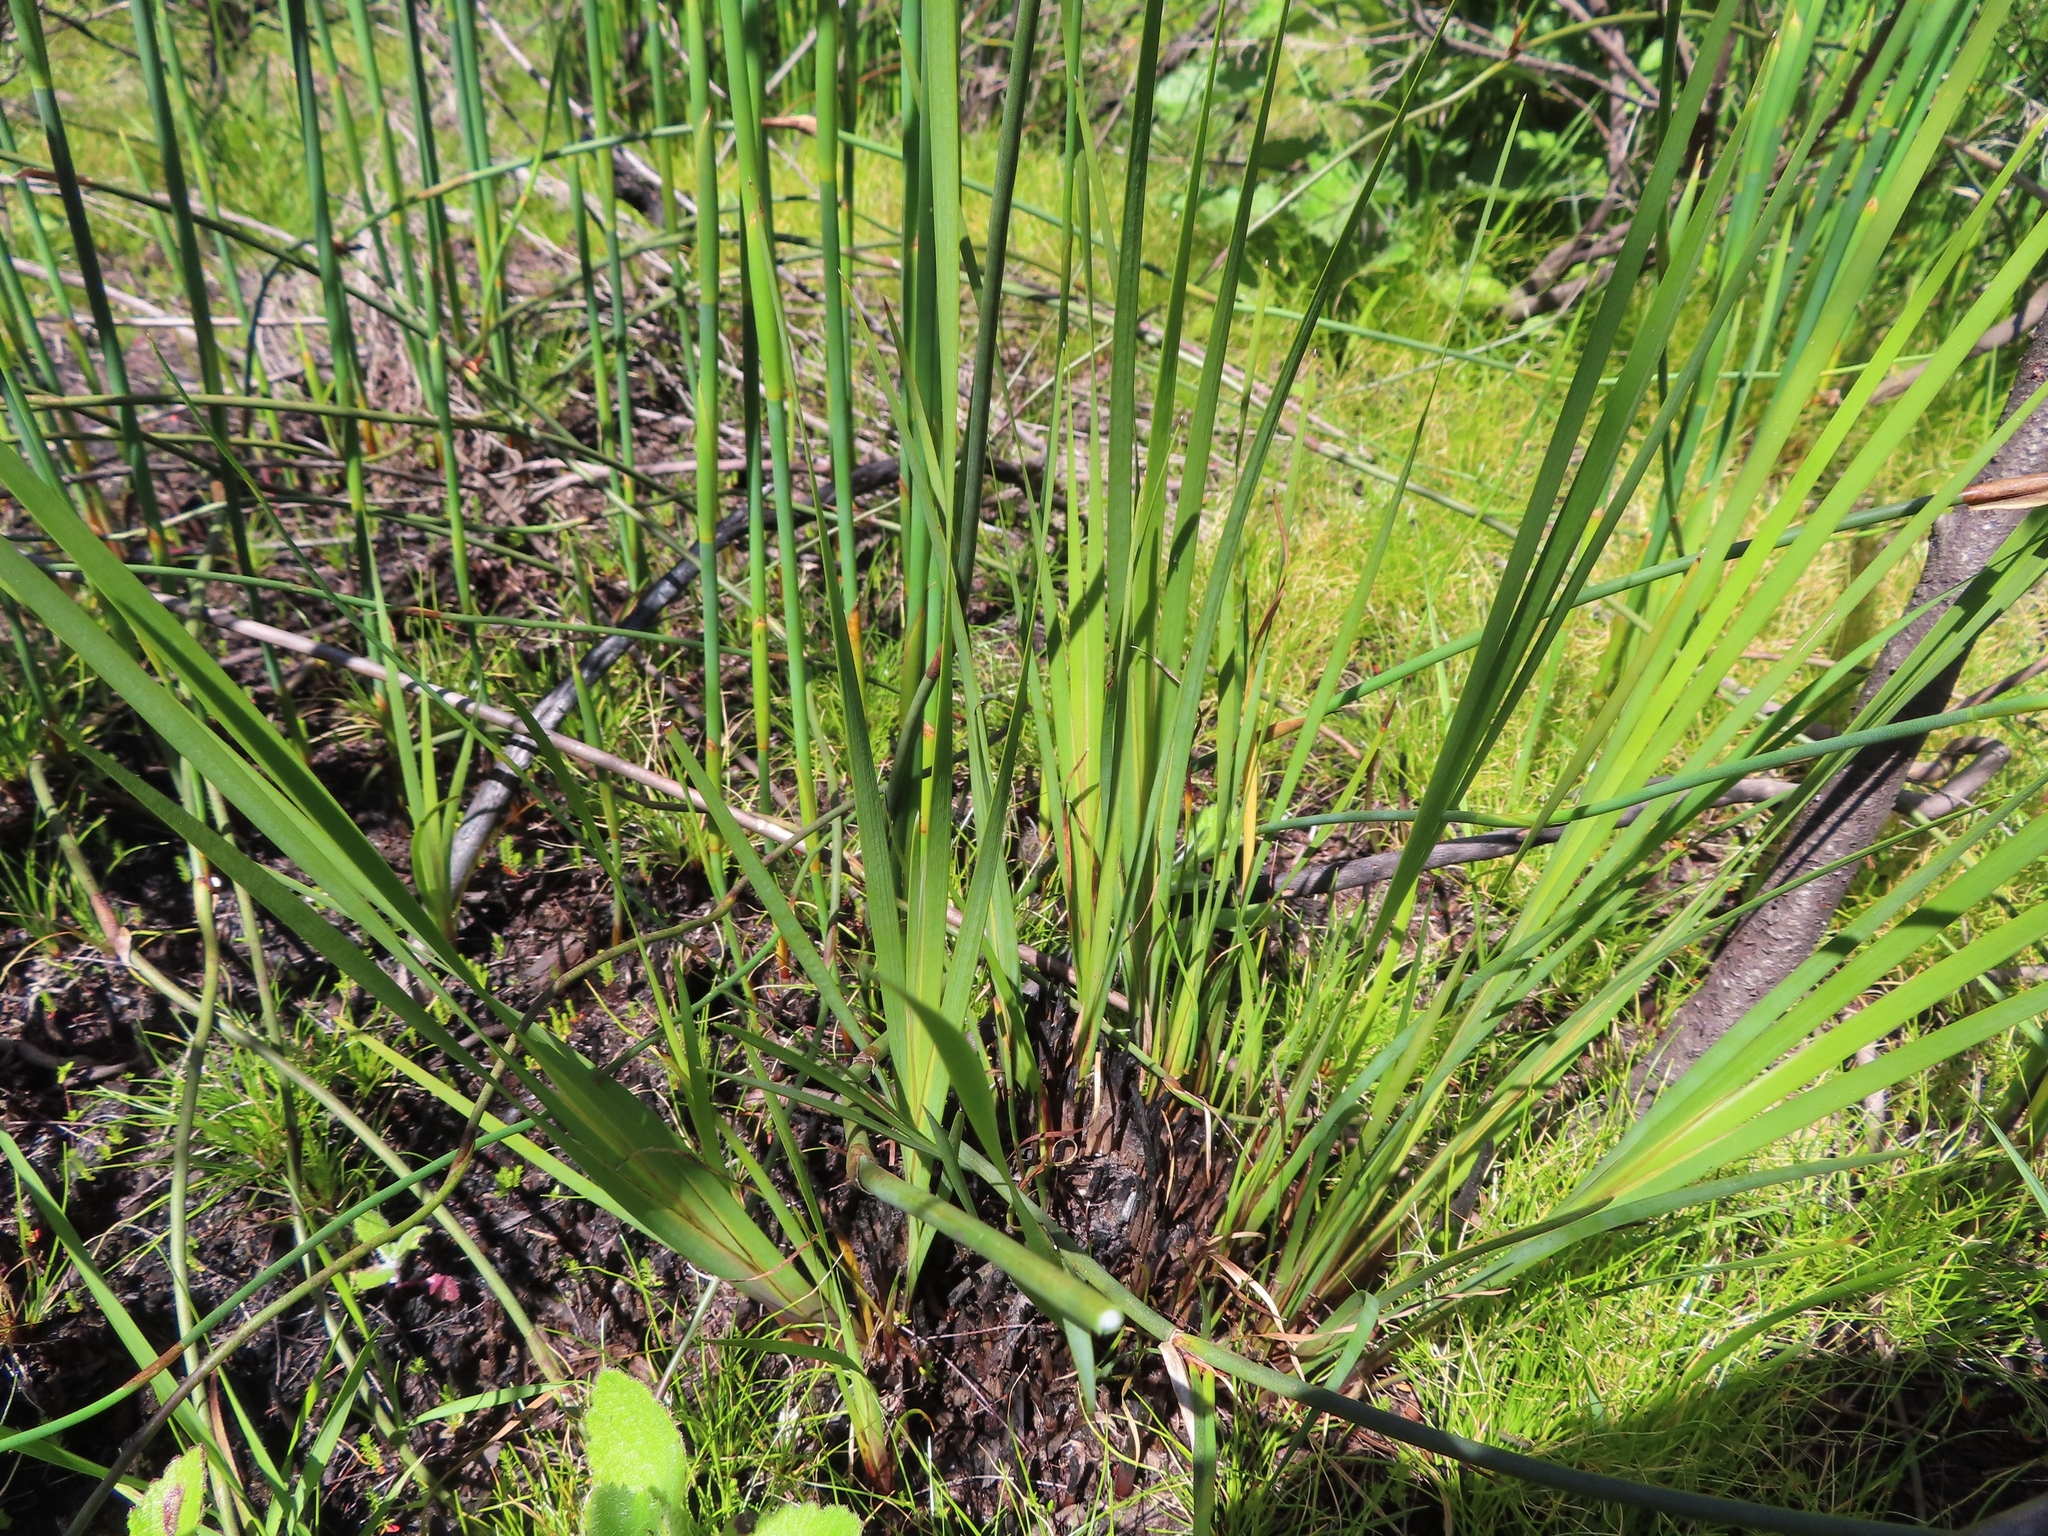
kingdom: Plantae
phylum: Tracheophyta
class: Liliopsida
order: Asparagales
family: Iridaceae
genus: Witsenia
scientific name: Witsenia maura
